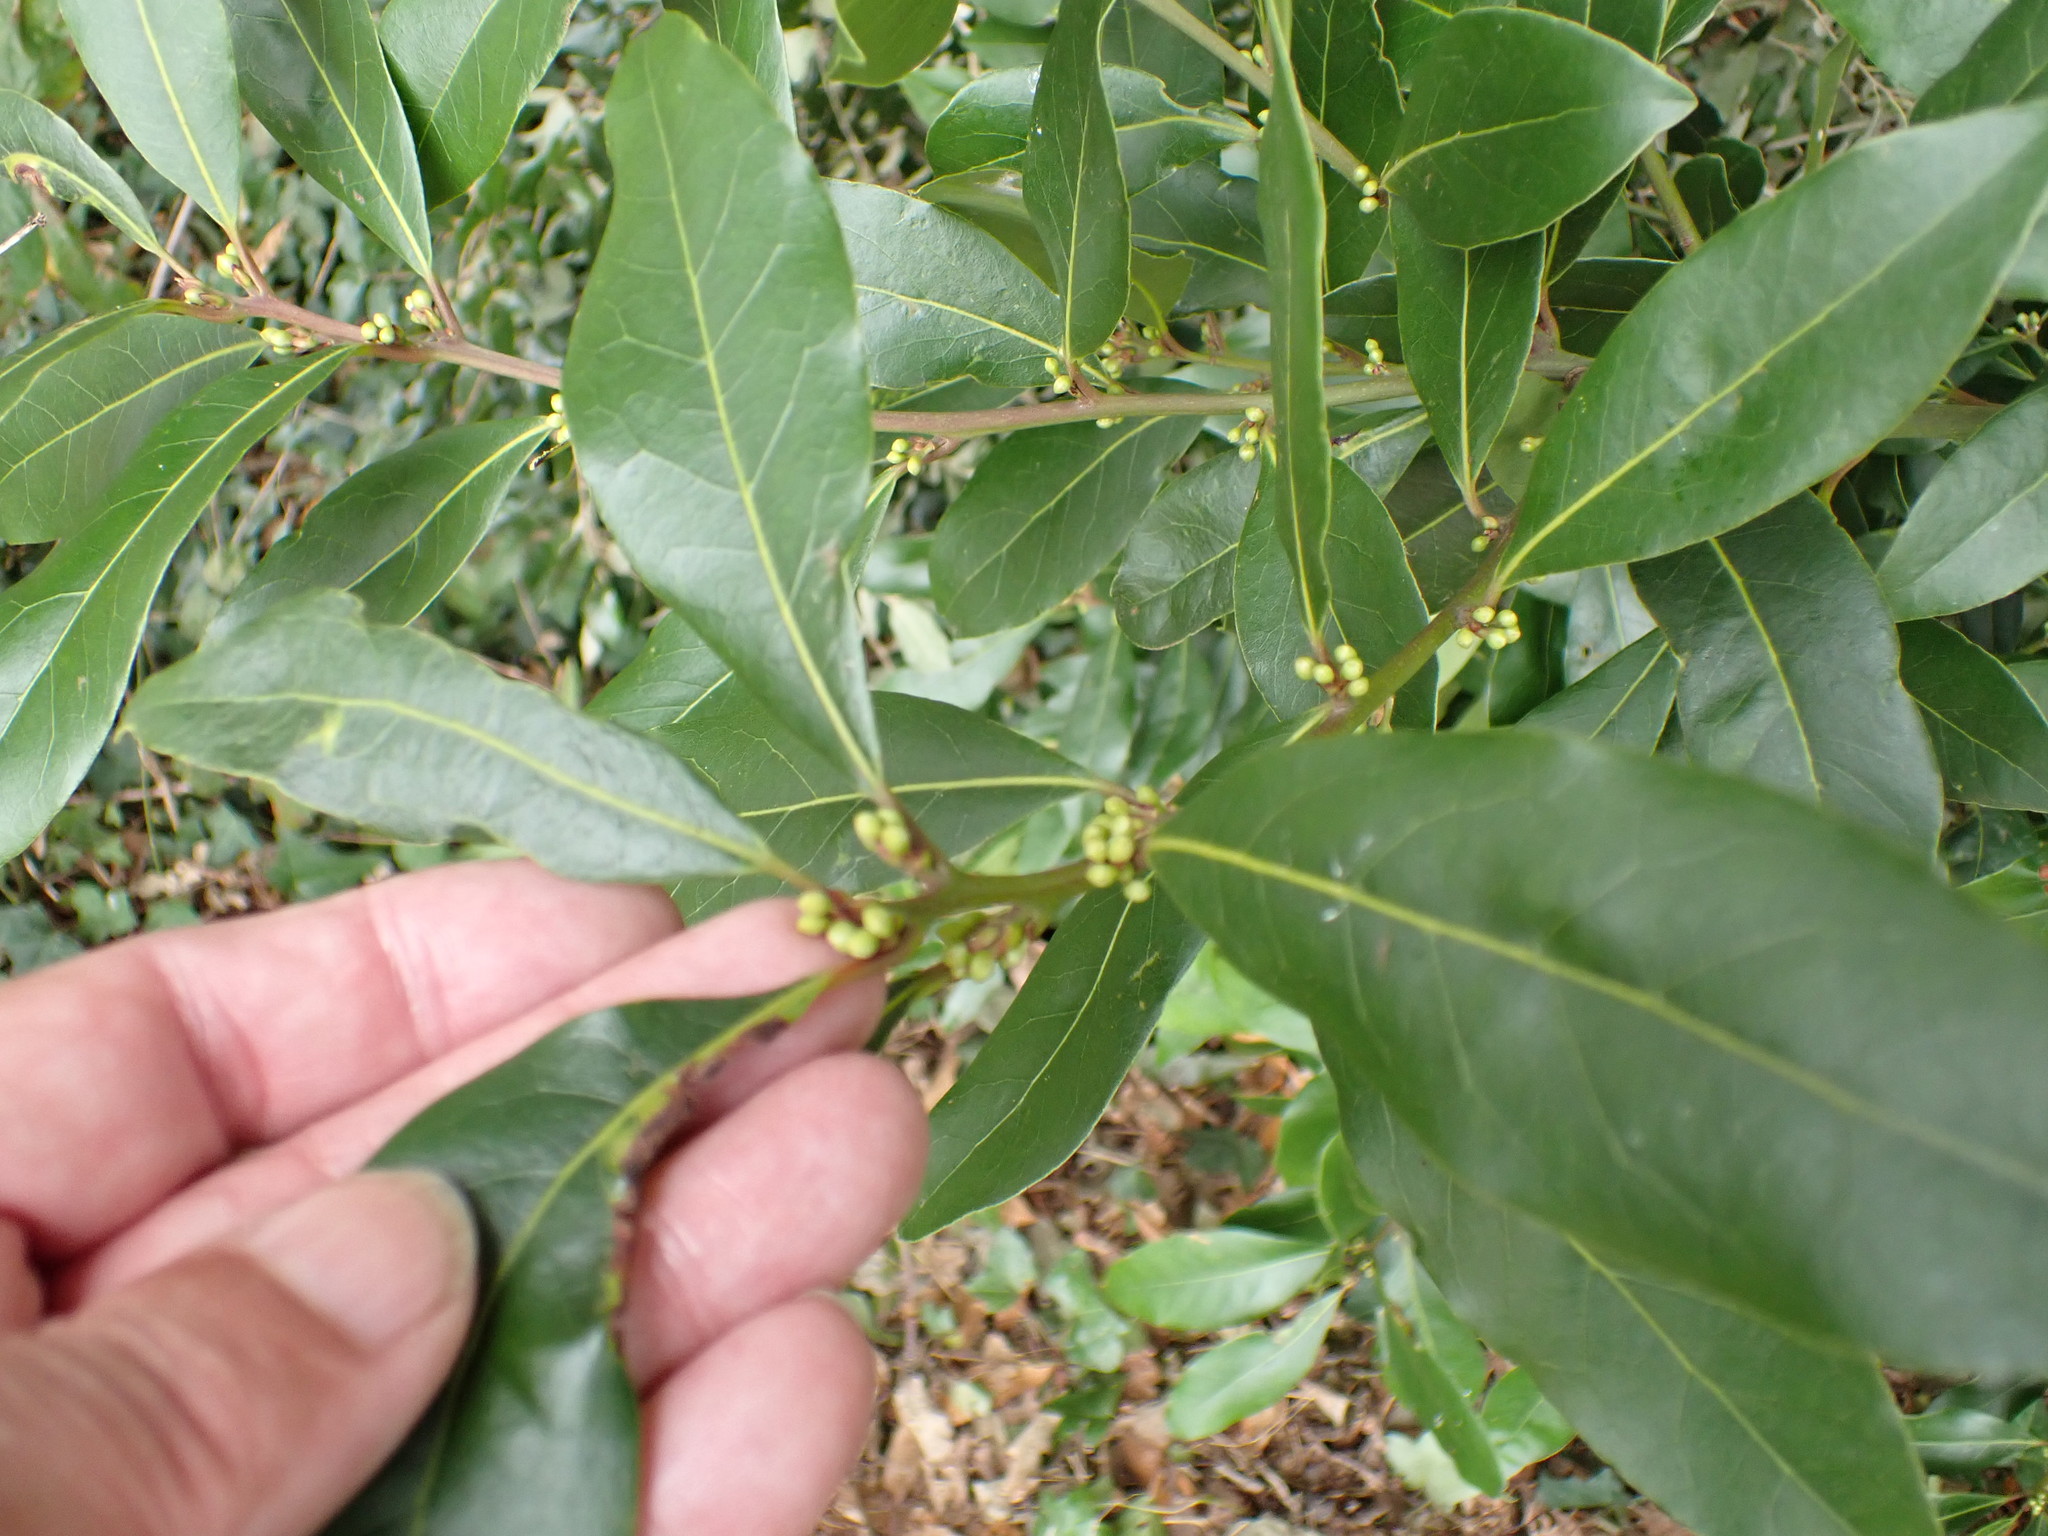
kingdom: Plantae
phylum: Tracheophyta
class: Magnoliopsida
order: Laurales
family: Lauraceae
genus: Laurus
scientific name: Laurus nobilis
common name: Bay
